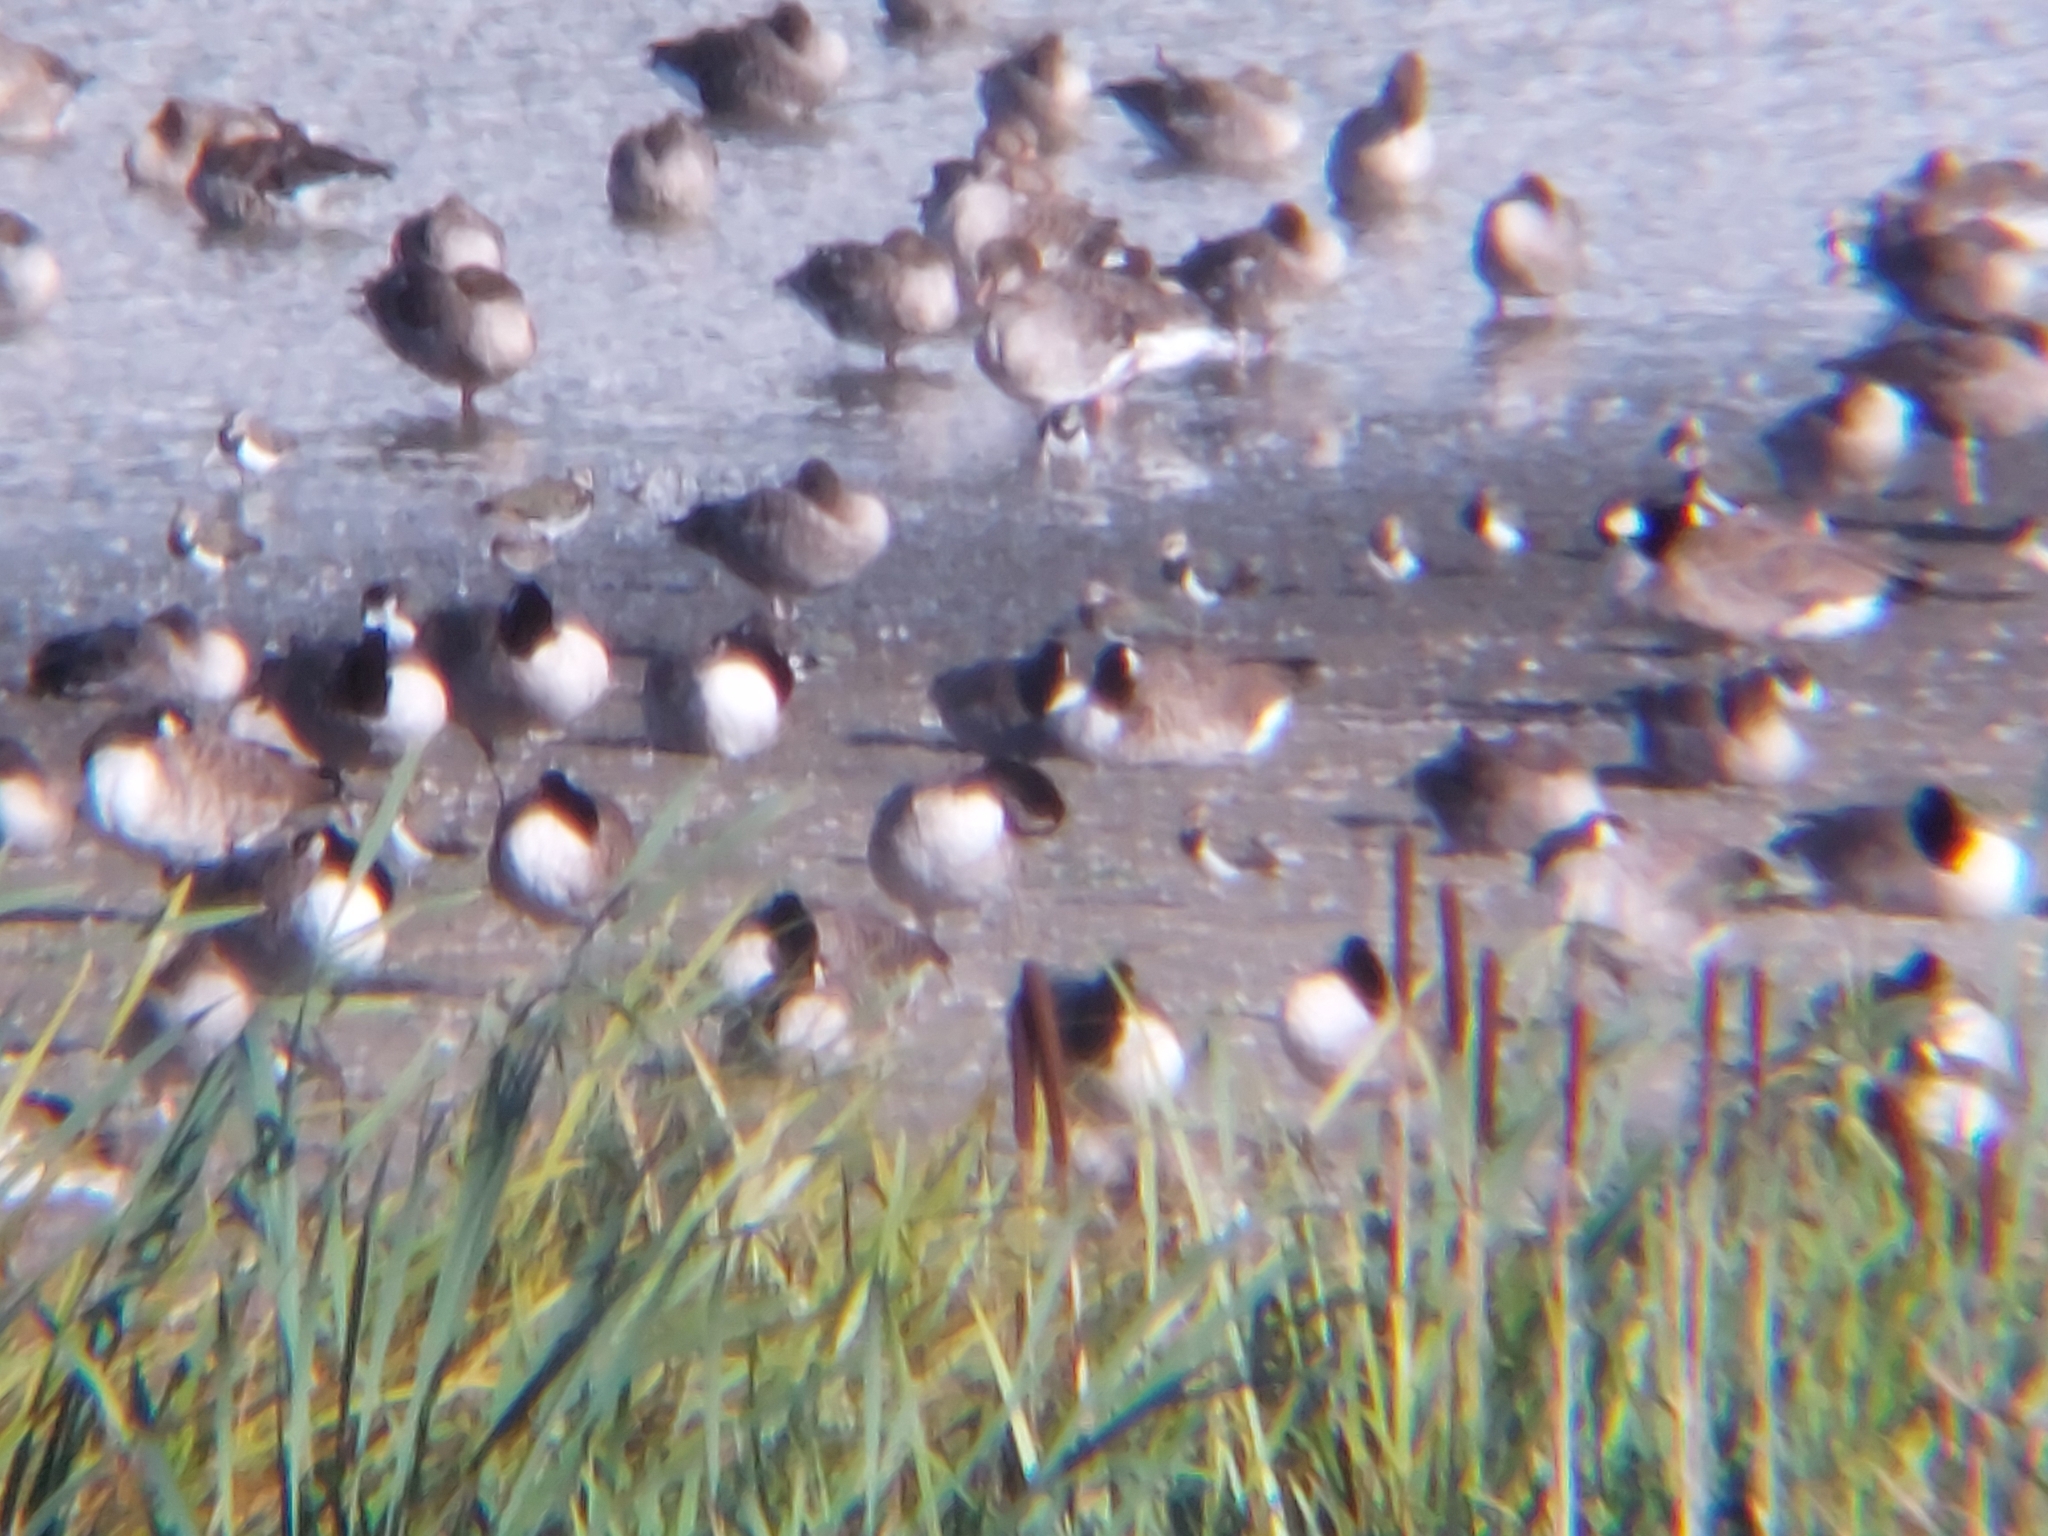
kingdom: Animalia
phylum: Chordata
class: Aves
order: Anseriformes
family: Anatidae
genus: Branta
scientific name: Branta canadensis
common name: Canada goose
